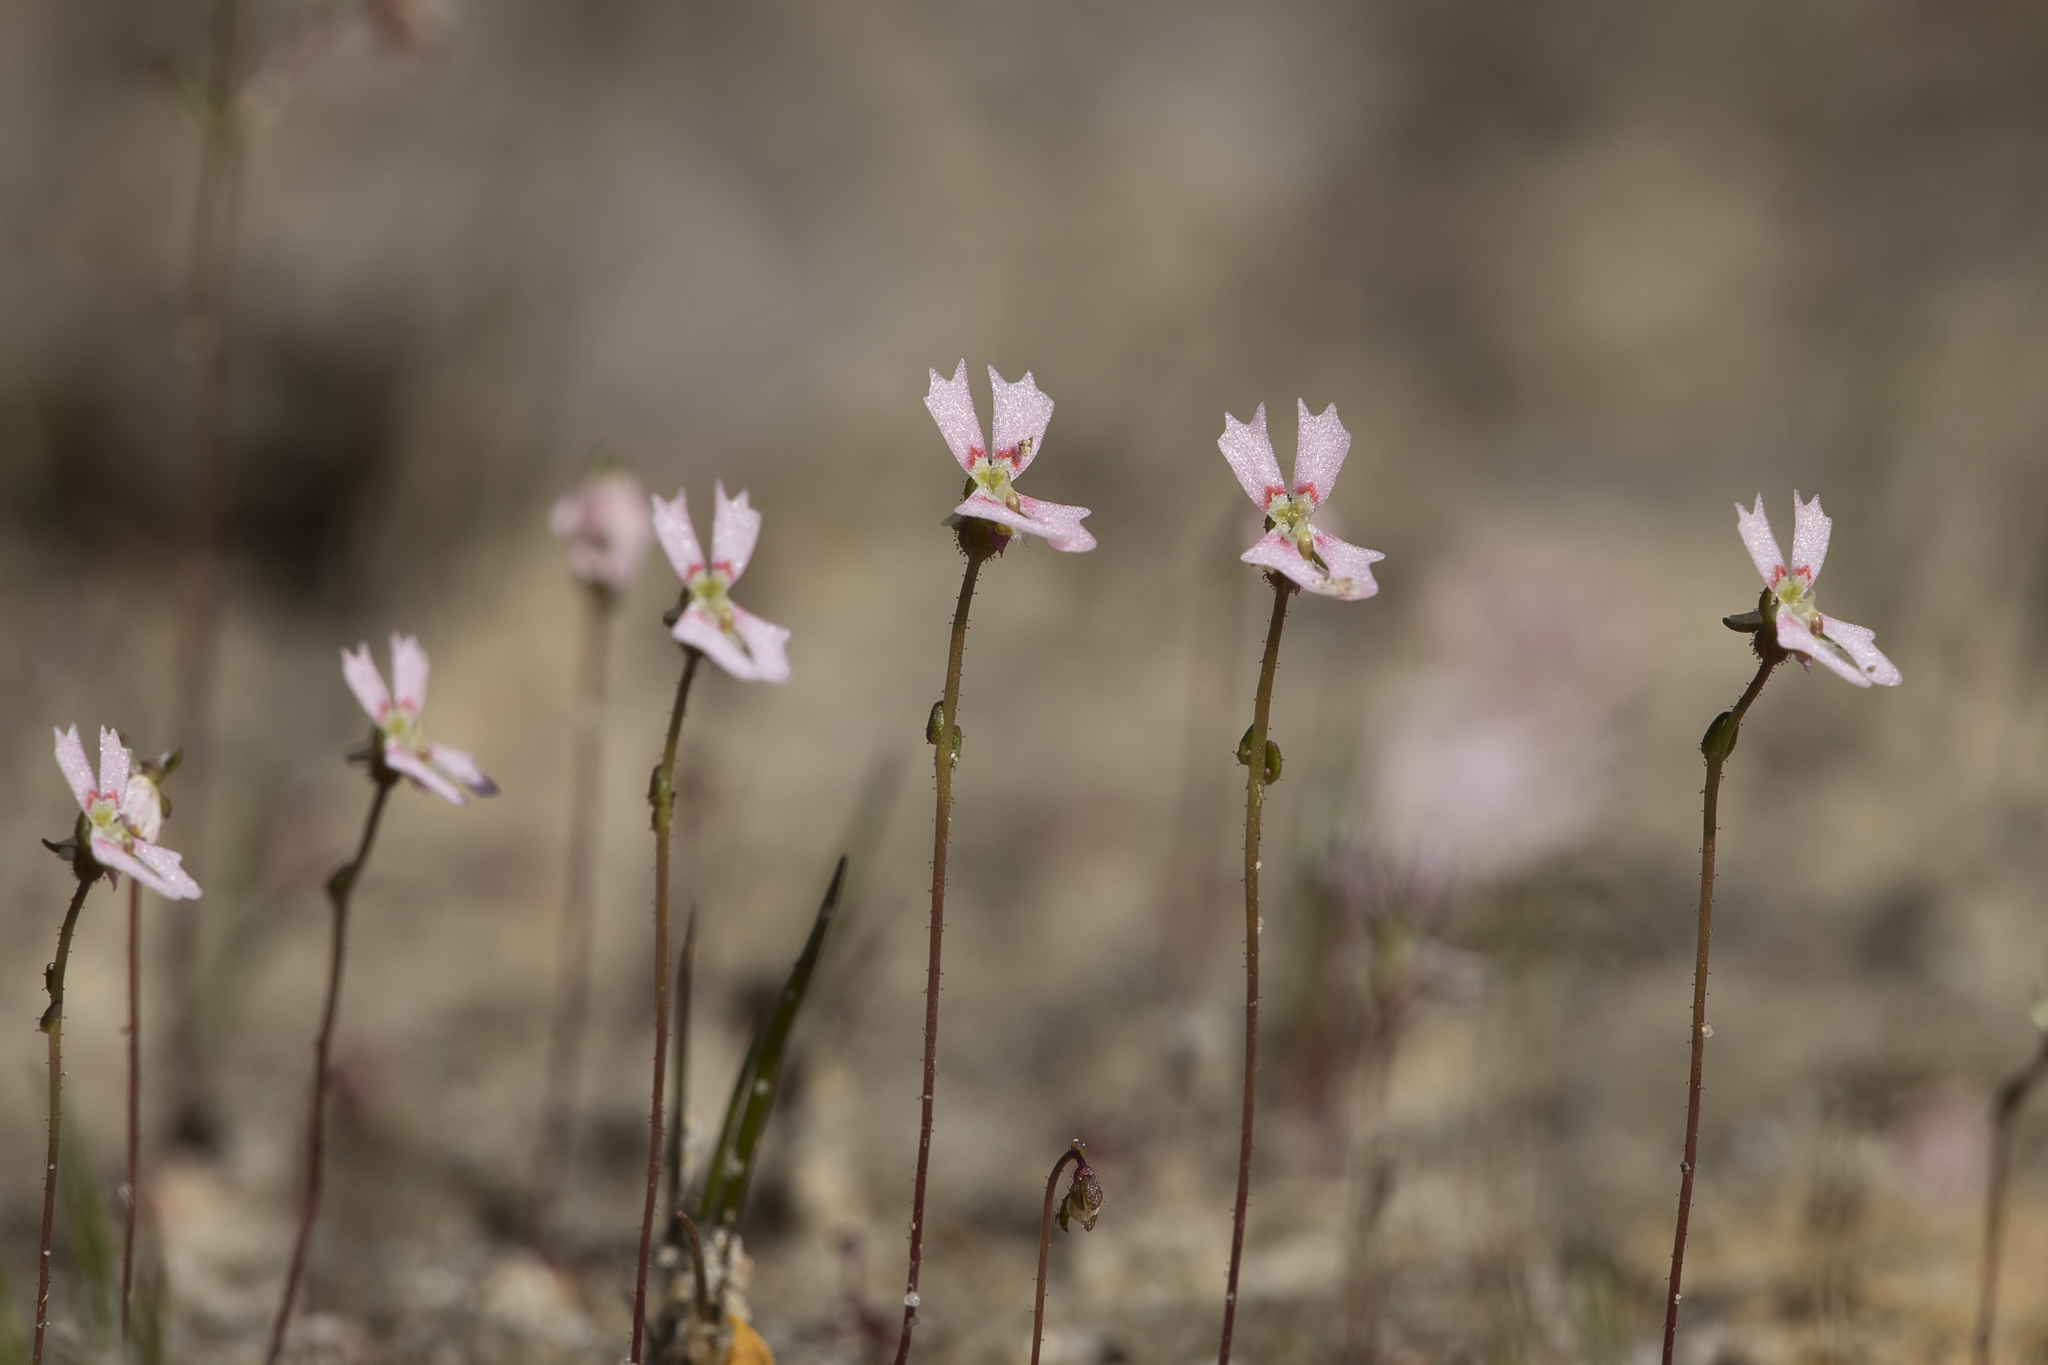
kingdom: Plantae
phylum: Tracheophyta
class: Magnoliopsida
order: Asterales
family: Stylidiaceae
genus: Stylidium
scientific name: Stylidium calcaratum
